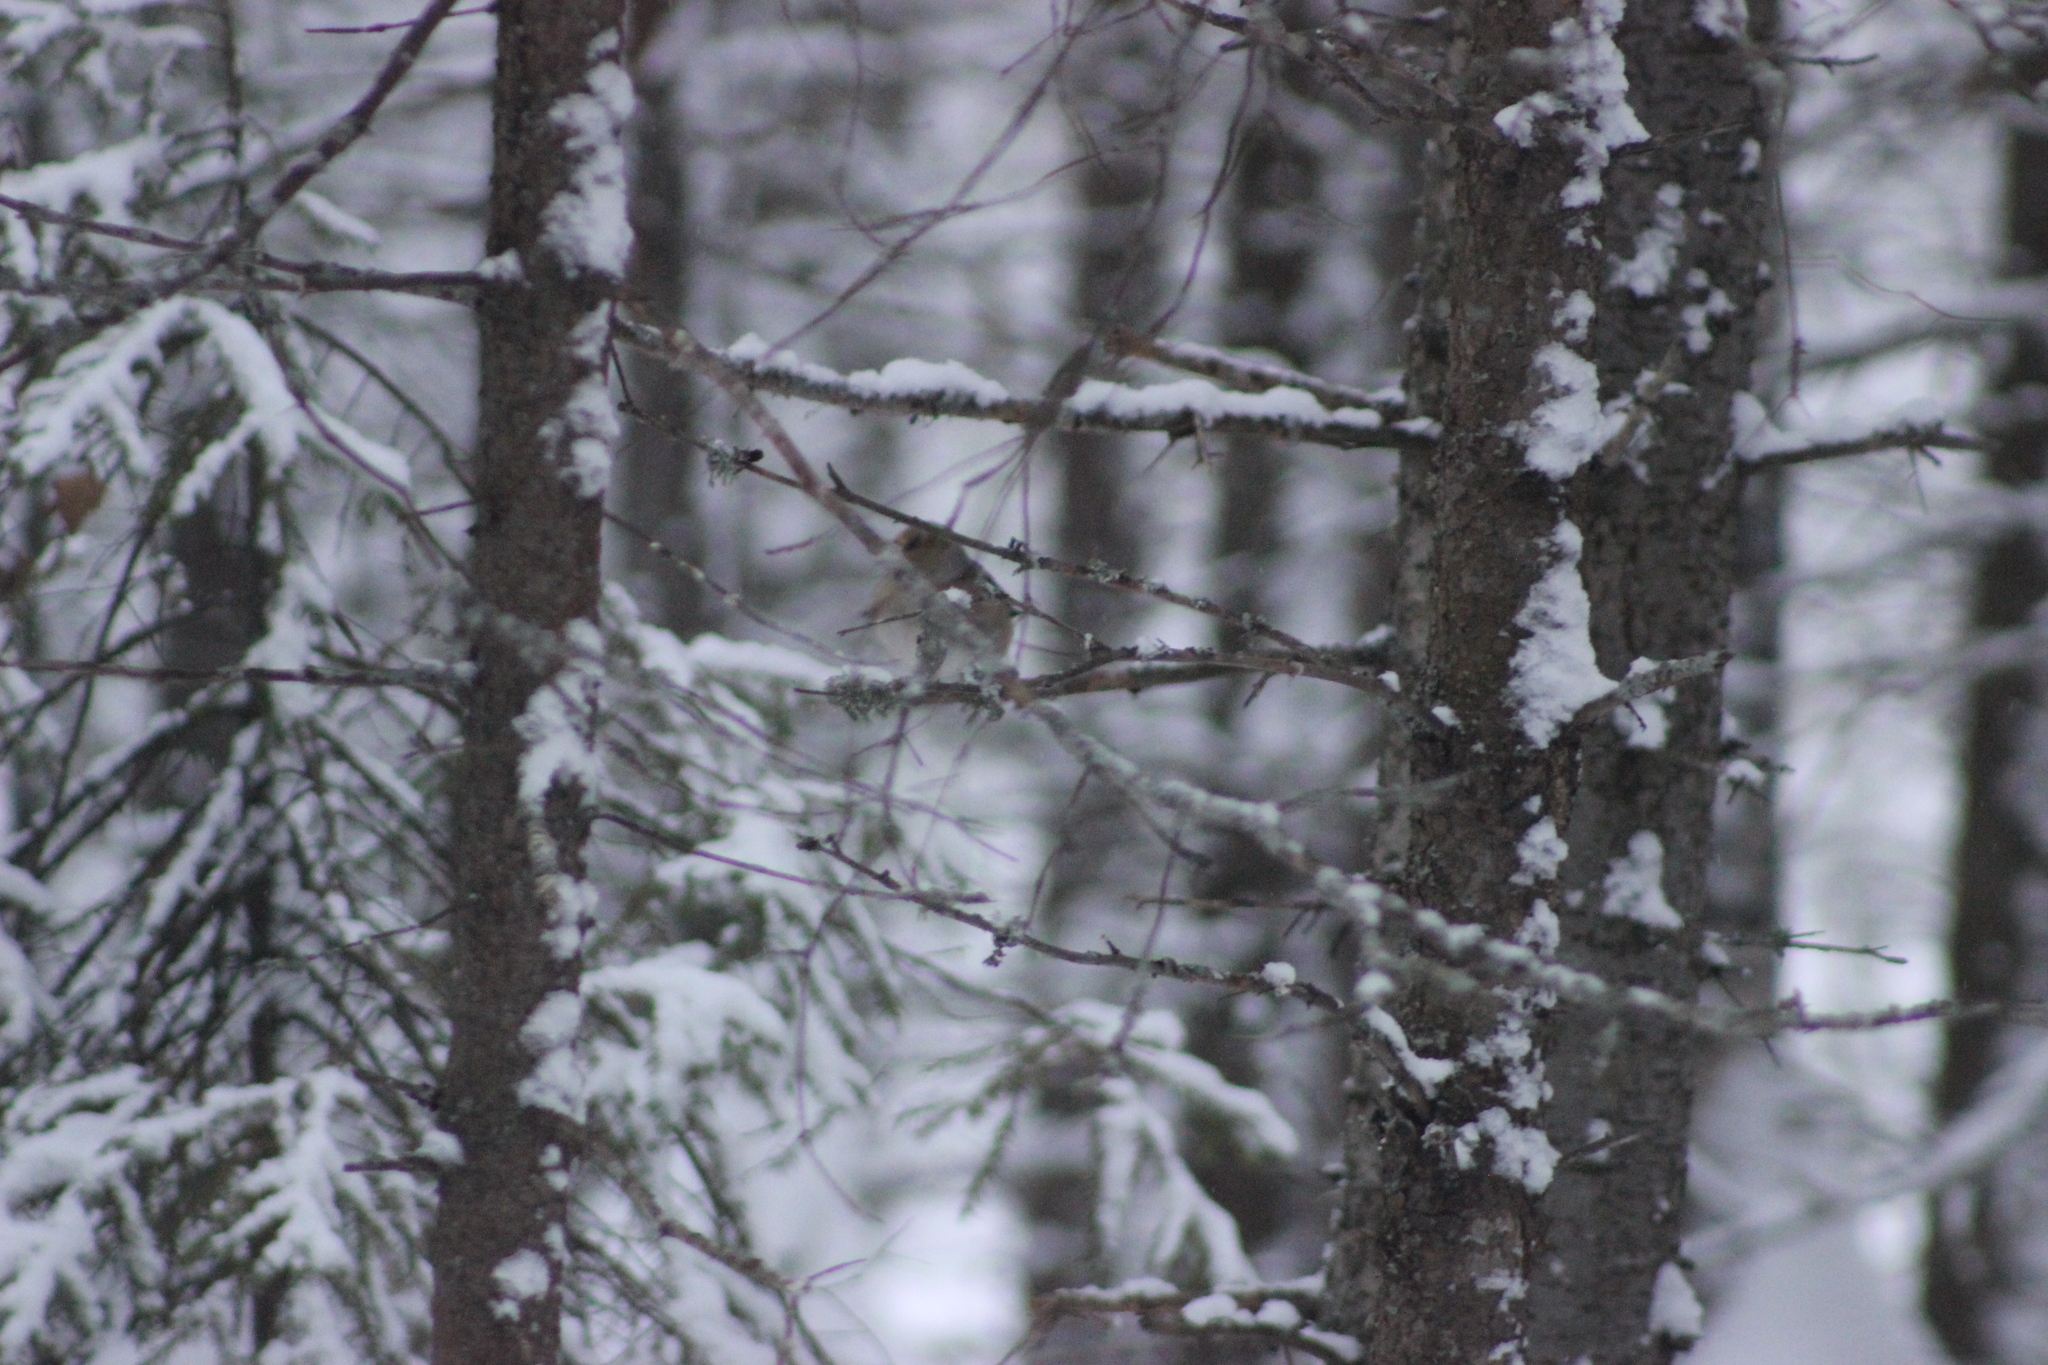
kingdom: Animalia
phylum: Chordata
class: Aves
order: Passeriformes
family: Fringillidae
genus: Coccothraustes
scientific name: Coccothraustes coccothraustes
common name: Hawfinch
